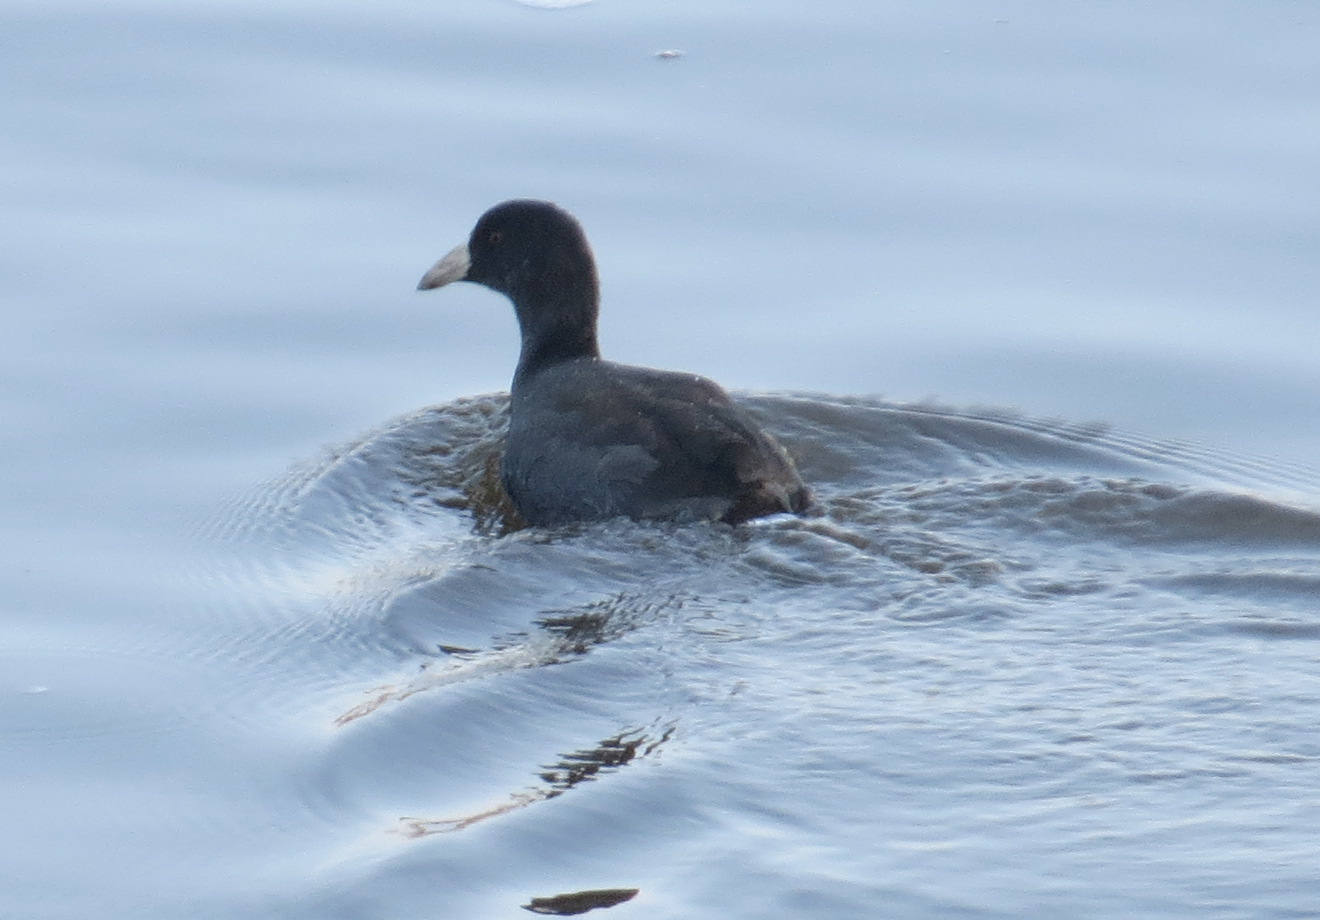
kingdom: Animalia
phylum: Chordata
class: Aves
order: Gruiformes
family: Rallidae
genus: Fulica
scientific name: Fulica americana
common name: American coot
